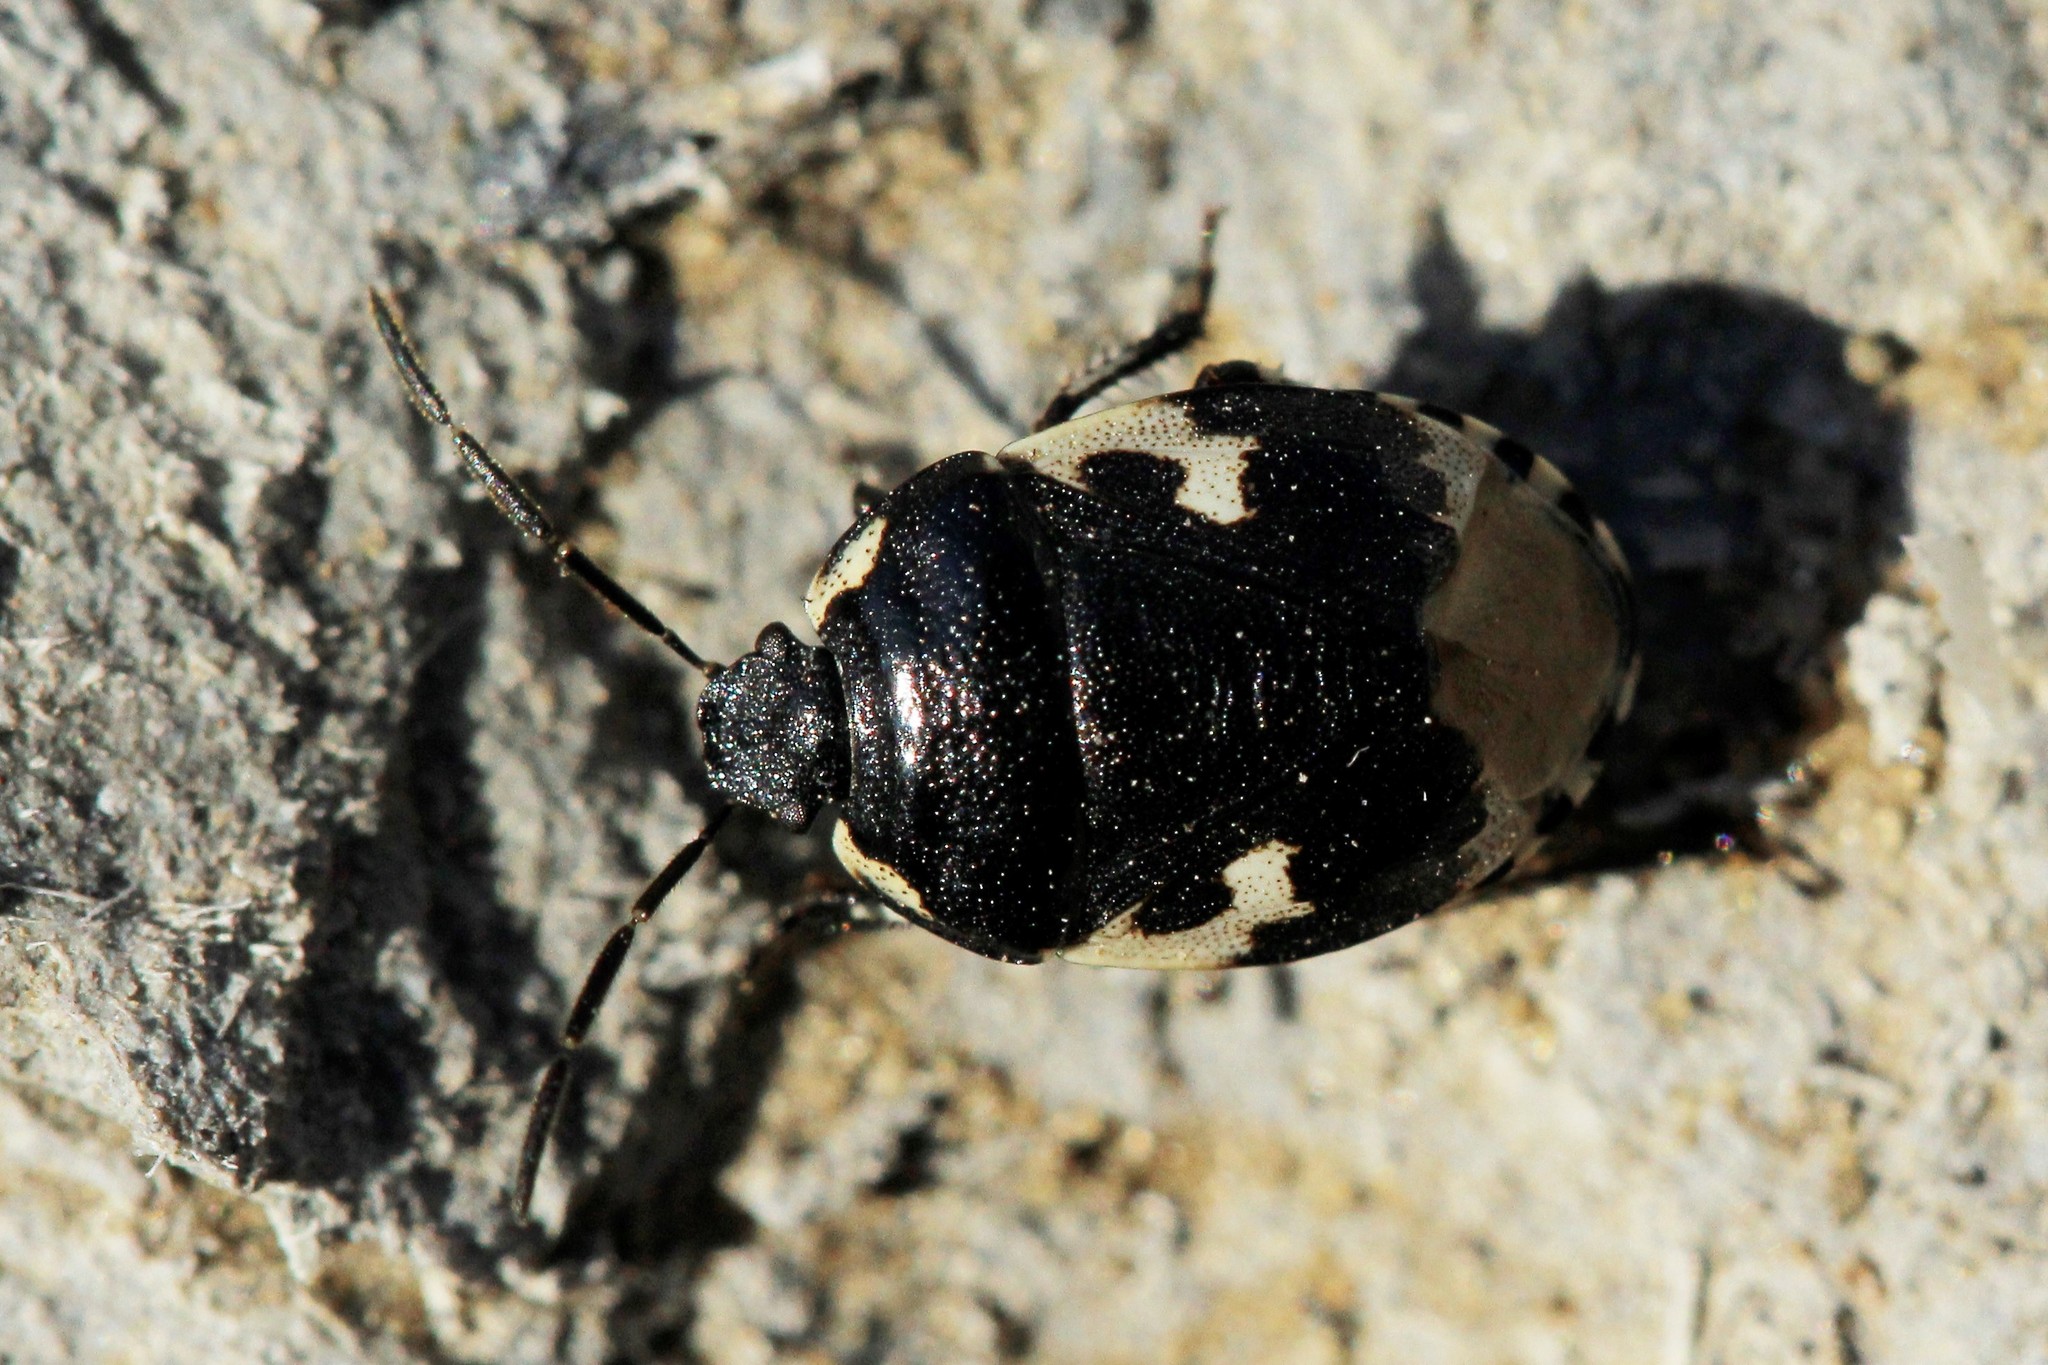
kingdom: Animalia
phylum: Arthropoda
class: Insecta
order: Hemiptera
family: Cydnidae
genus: Tritomegas
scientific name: Tritomegas bicolor
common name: Pied shieldbug
